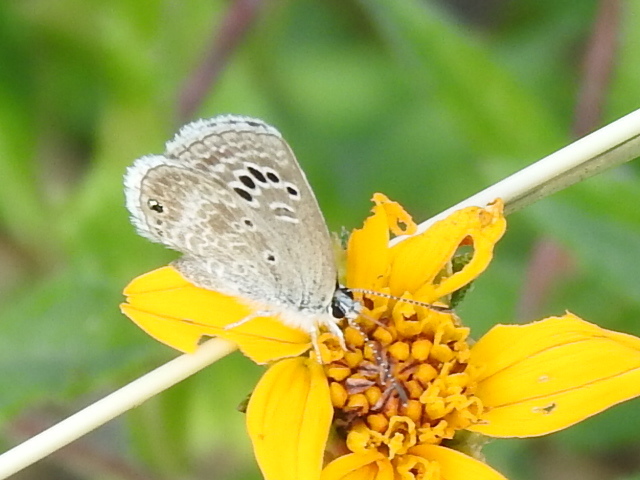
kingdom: Animalia
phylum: Arthropoda
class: Insecta
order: Lepidoptera
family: Lycaenidae
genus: Echinargus
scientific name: Echinargus isola
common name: Reakirt's blue
